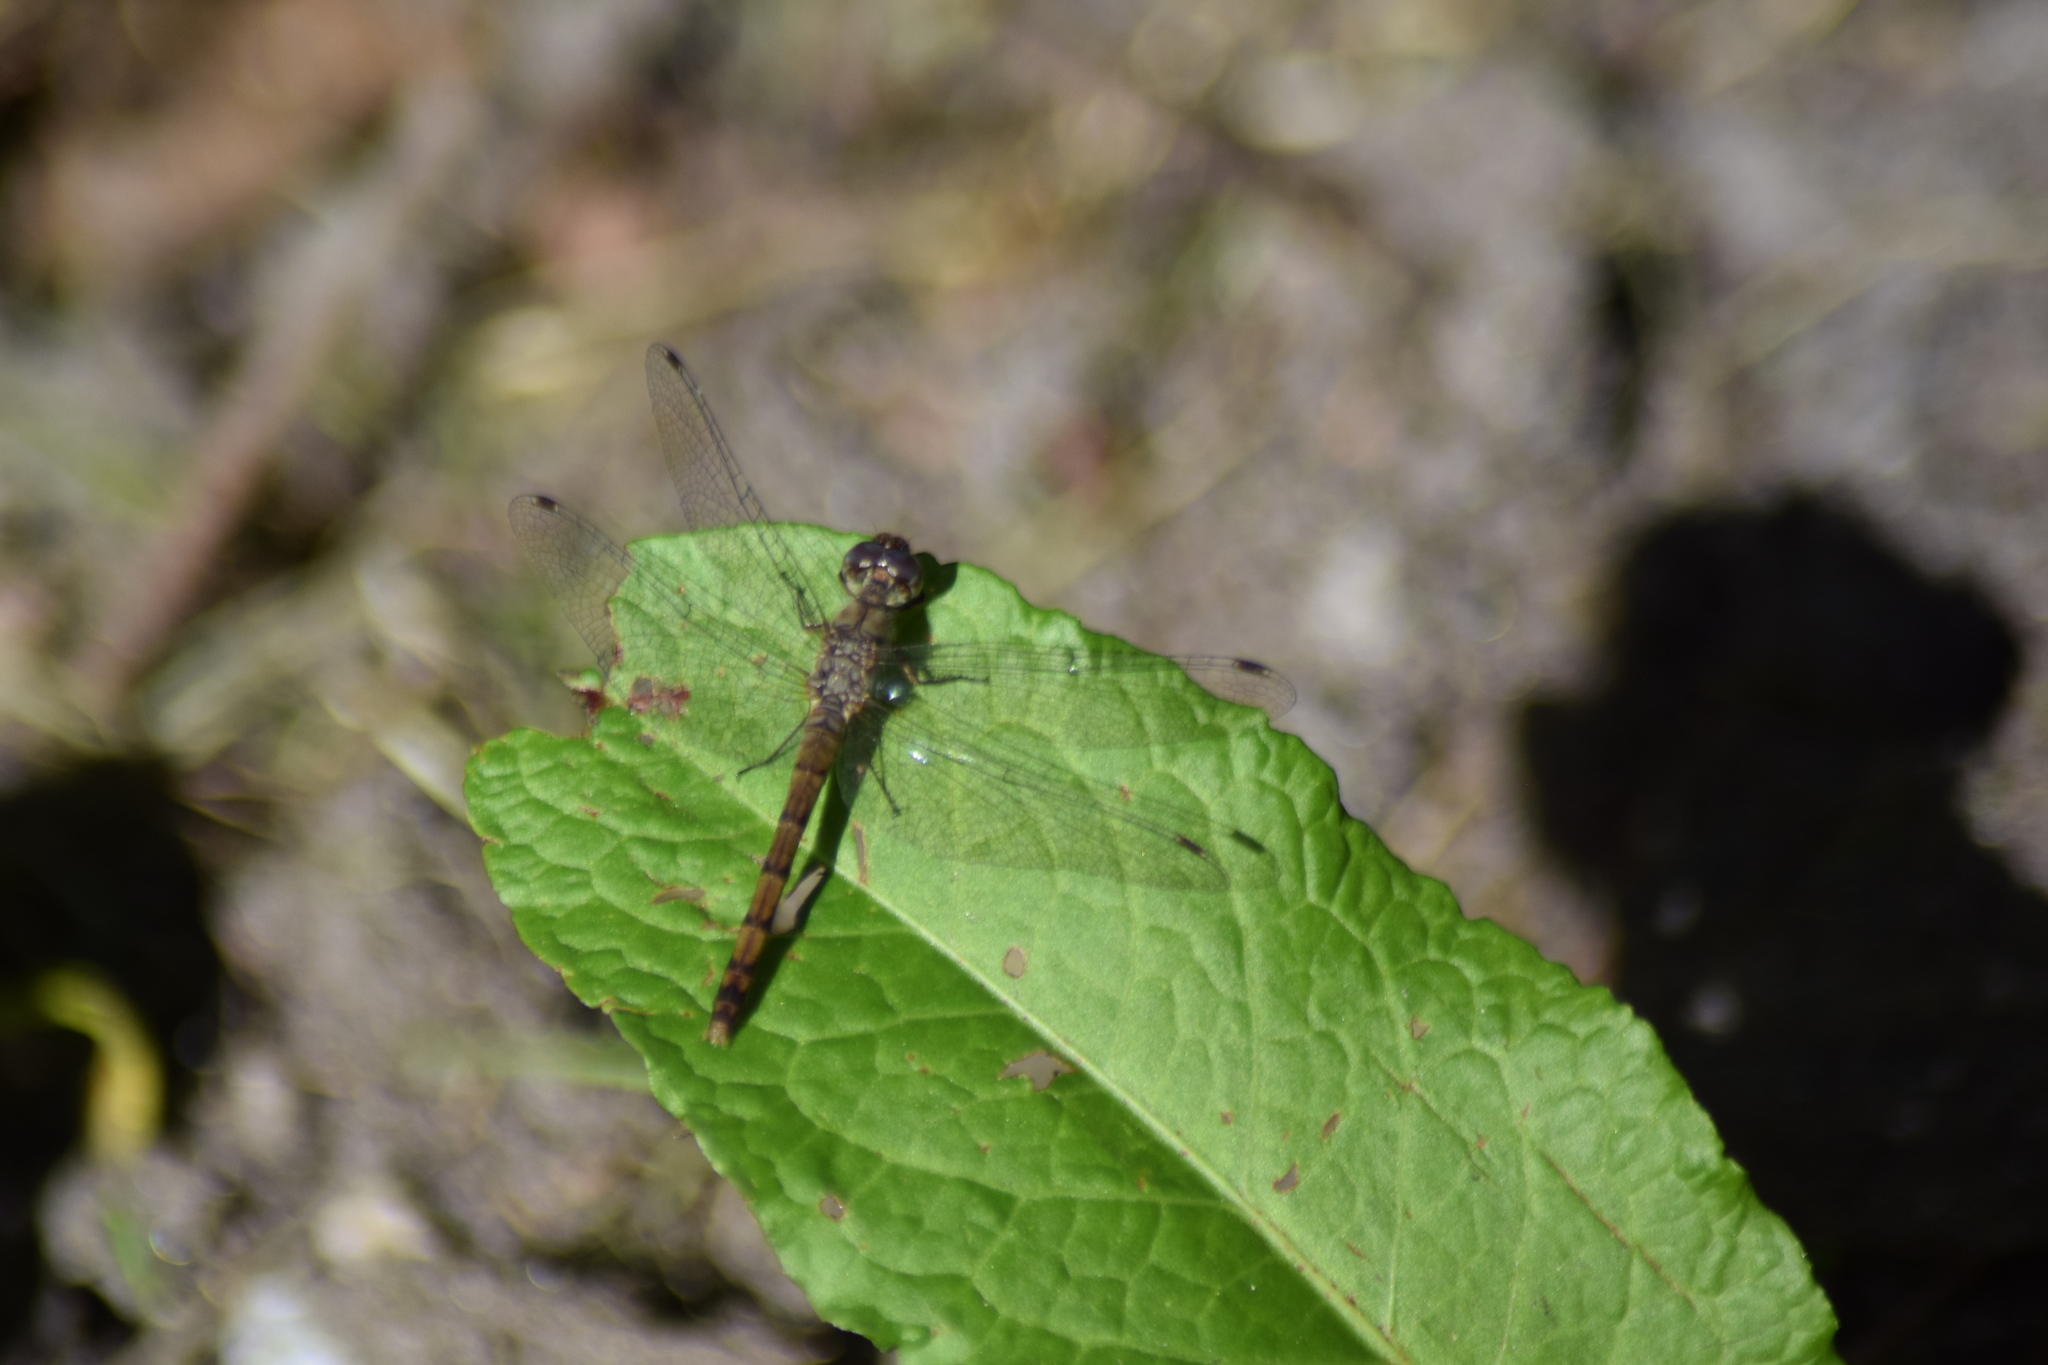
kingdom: Animalia
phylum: Arthropoda
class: Insecta
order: Odonata
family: Libellulidae
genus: Sympetrum
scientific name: Sympetrum ambiguum
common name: Blue-faced meadowhawk
